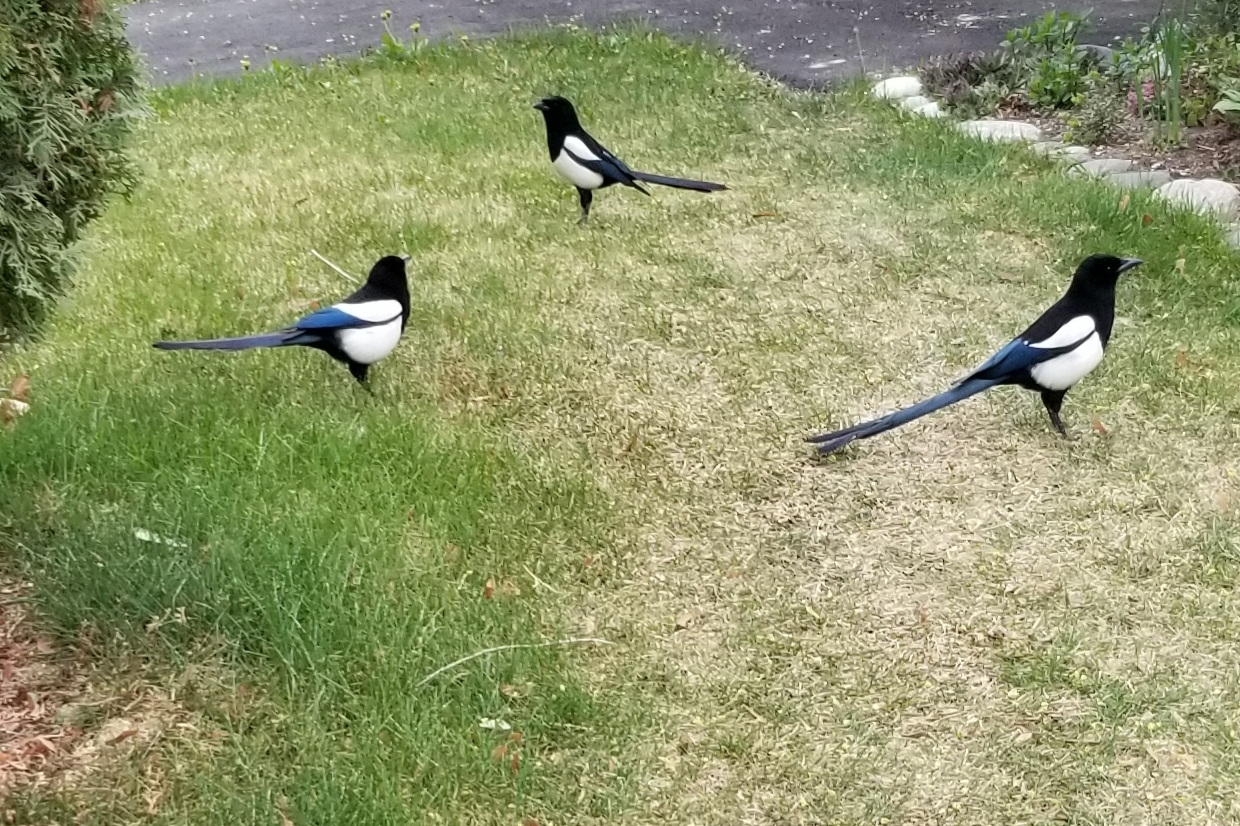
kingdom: Animalia
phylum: Chordata
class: Aves
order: Passeriformes
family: Corvidae
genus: Pica
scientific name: Pica hudsonia
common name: Black-billed magpie
